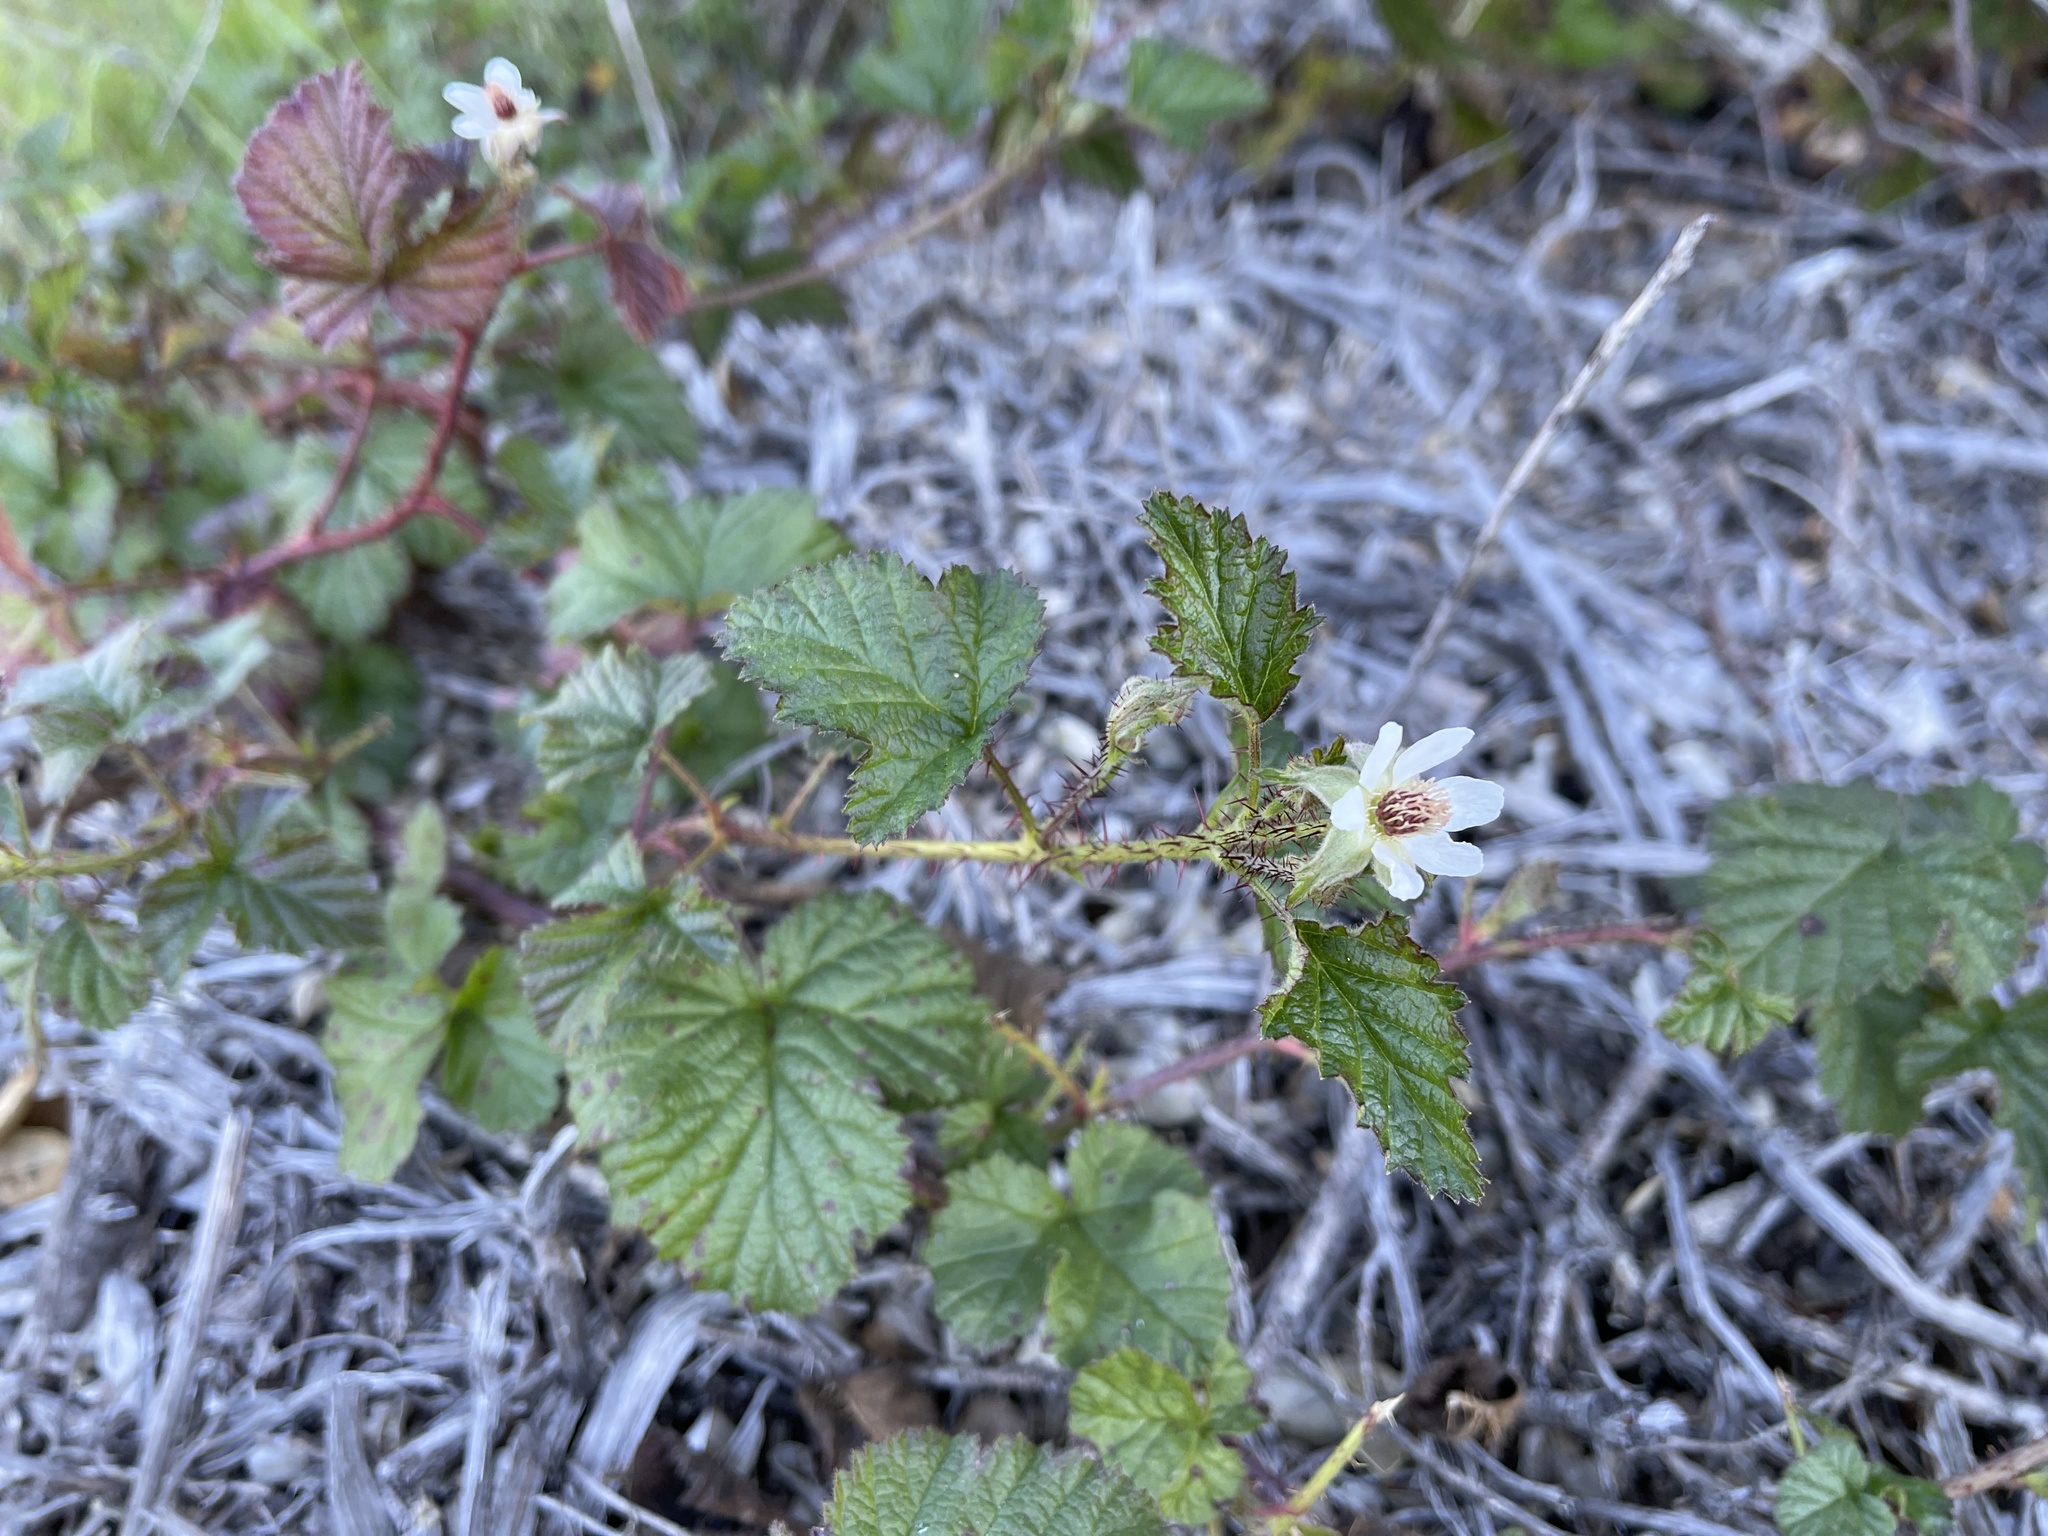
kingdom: Plantae
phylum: Tracheophyta
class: Magnoliopsida
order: Rosales
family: Rosaceae
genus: Rubus
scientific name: Rubus ursinus
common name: Pacific blackberry
